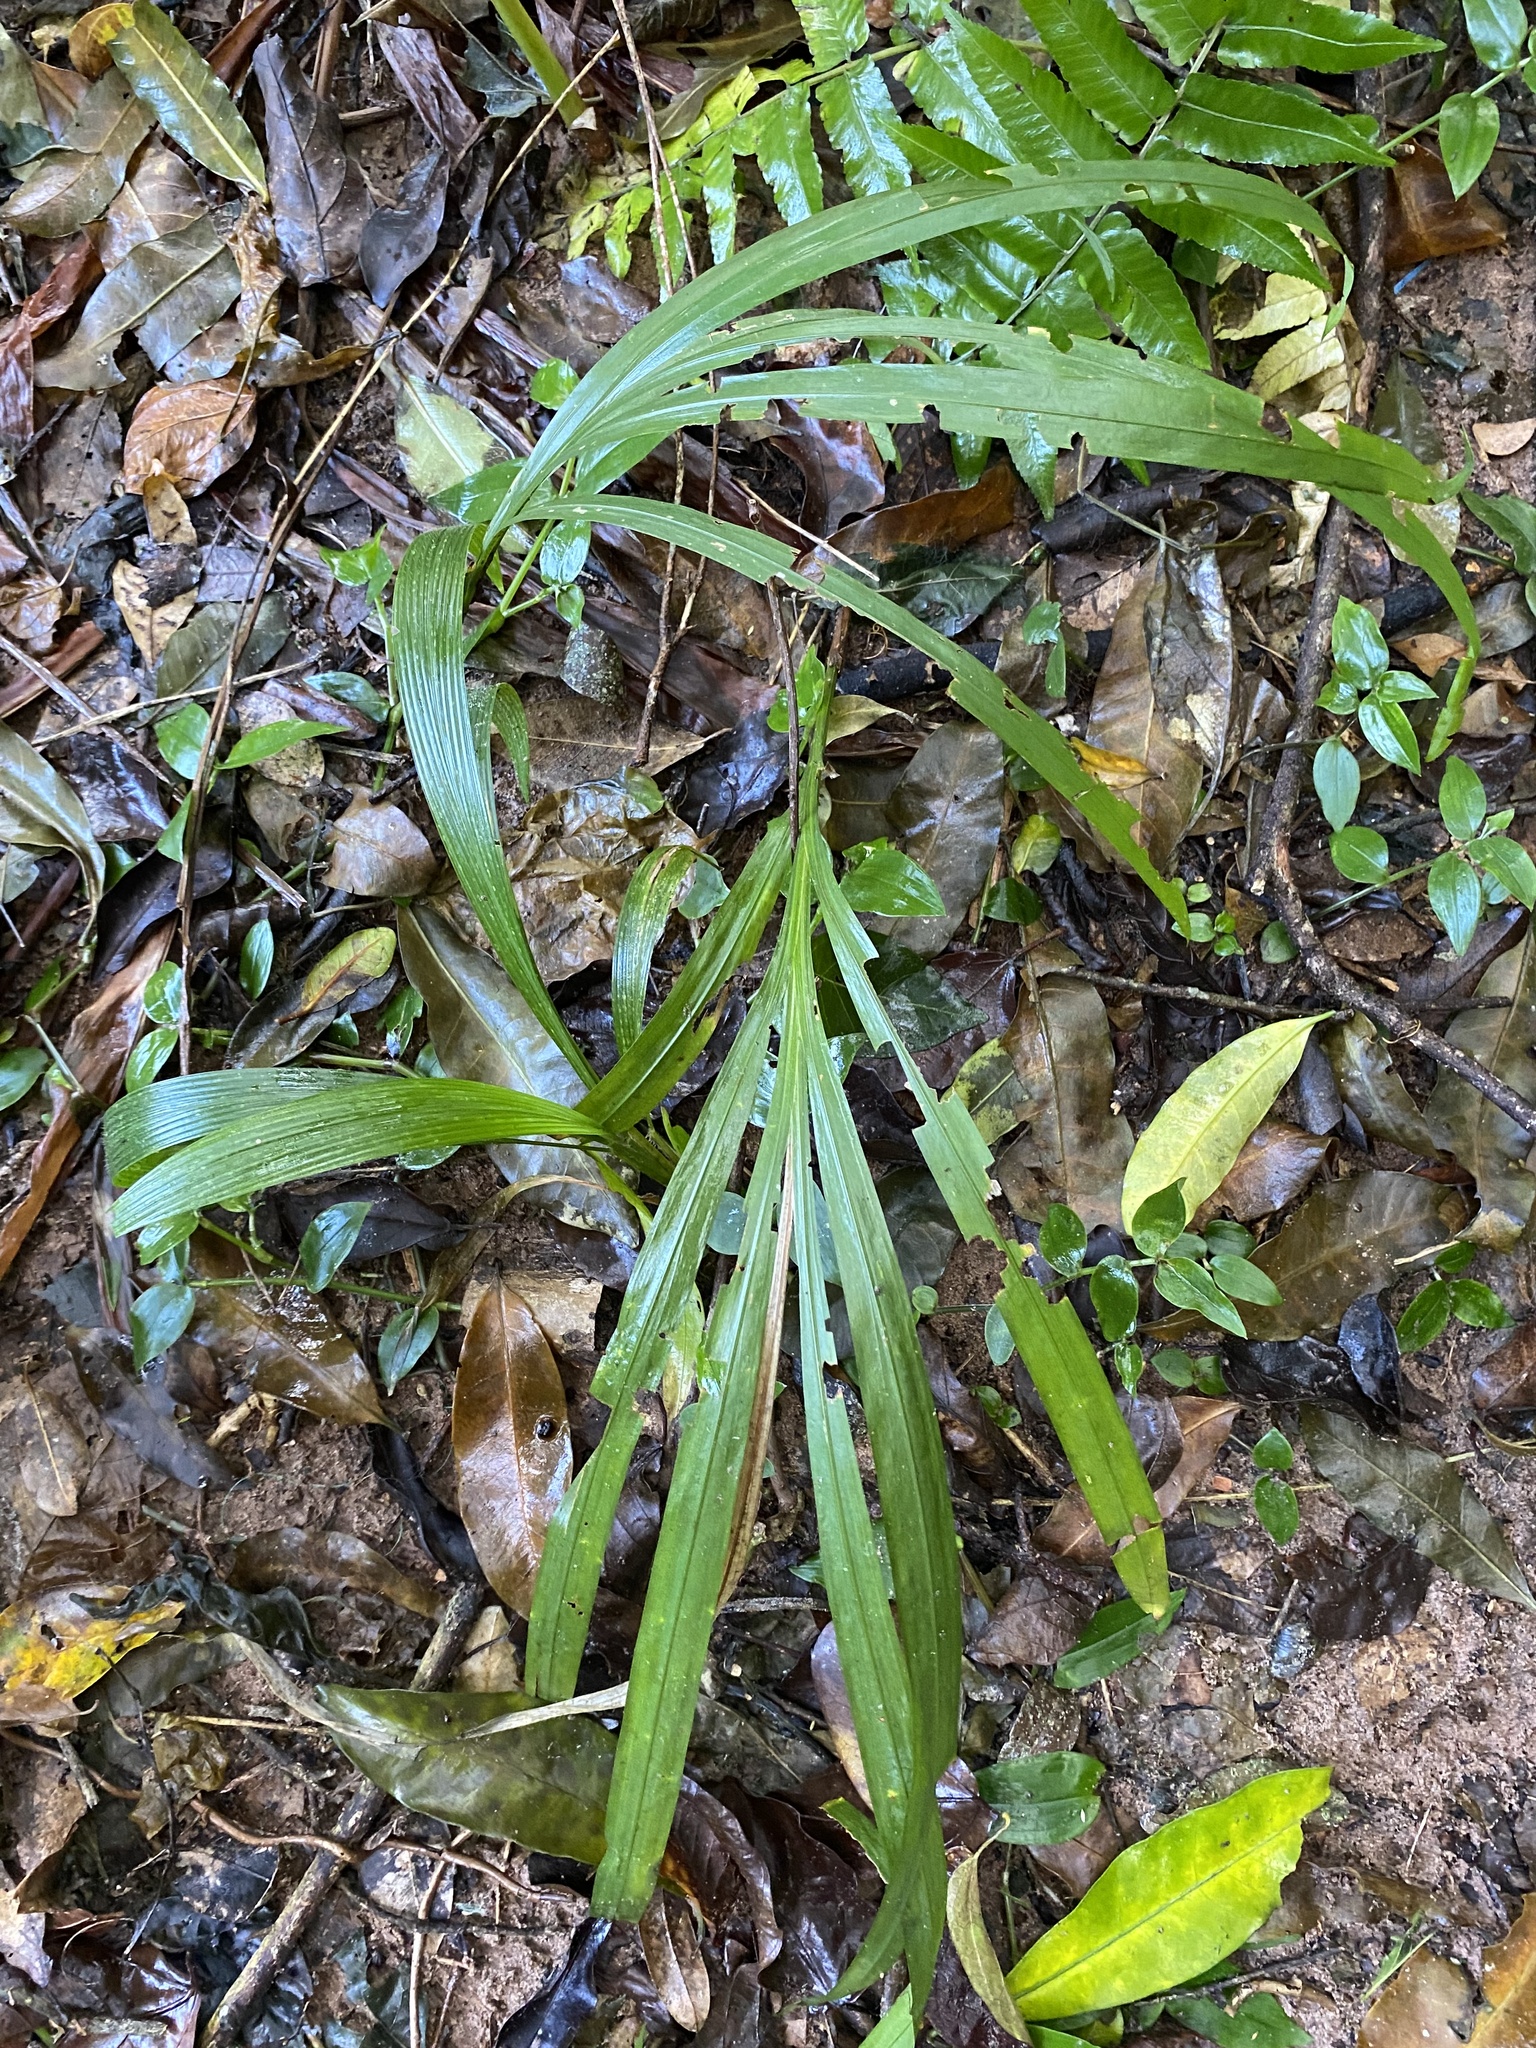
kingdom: Plantae
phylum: Tracheophyta
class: Liliopsida
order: Asparagales
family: Iridaceae
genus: Crocosmia
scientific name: Crocosmia aurea
